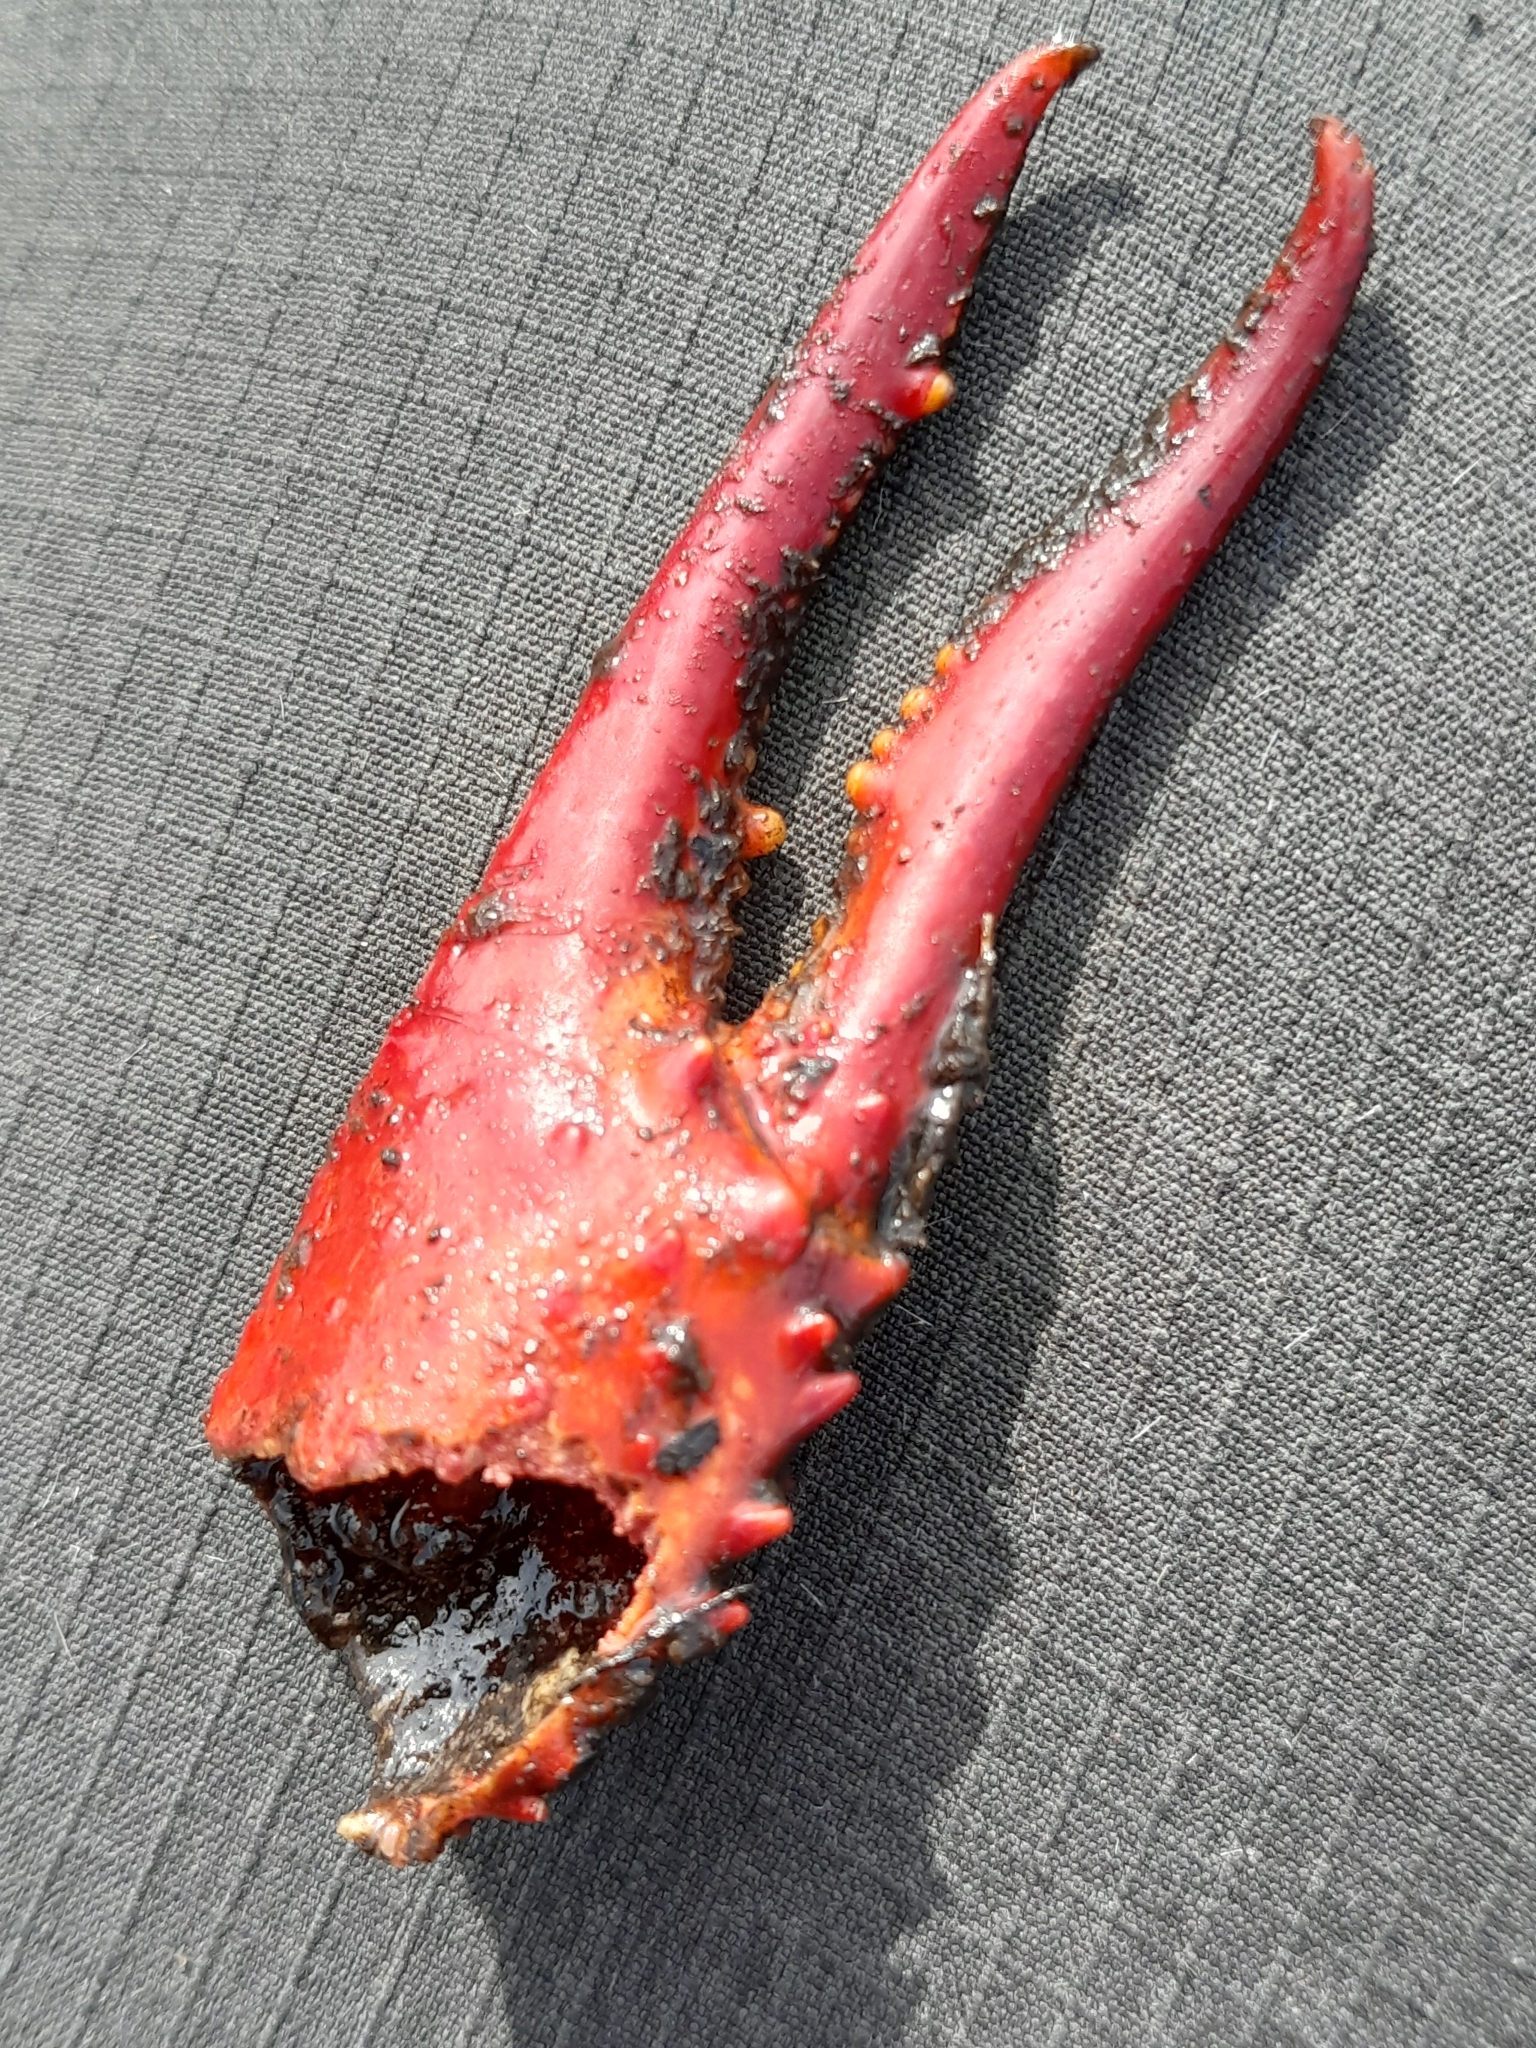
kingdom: Animalia
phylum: Arthropoda
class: Malacostraca
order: Decapoda
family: Cambaridae
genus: Procambarus
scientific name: Procambarus clarkii
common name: Red swamp crayfish
